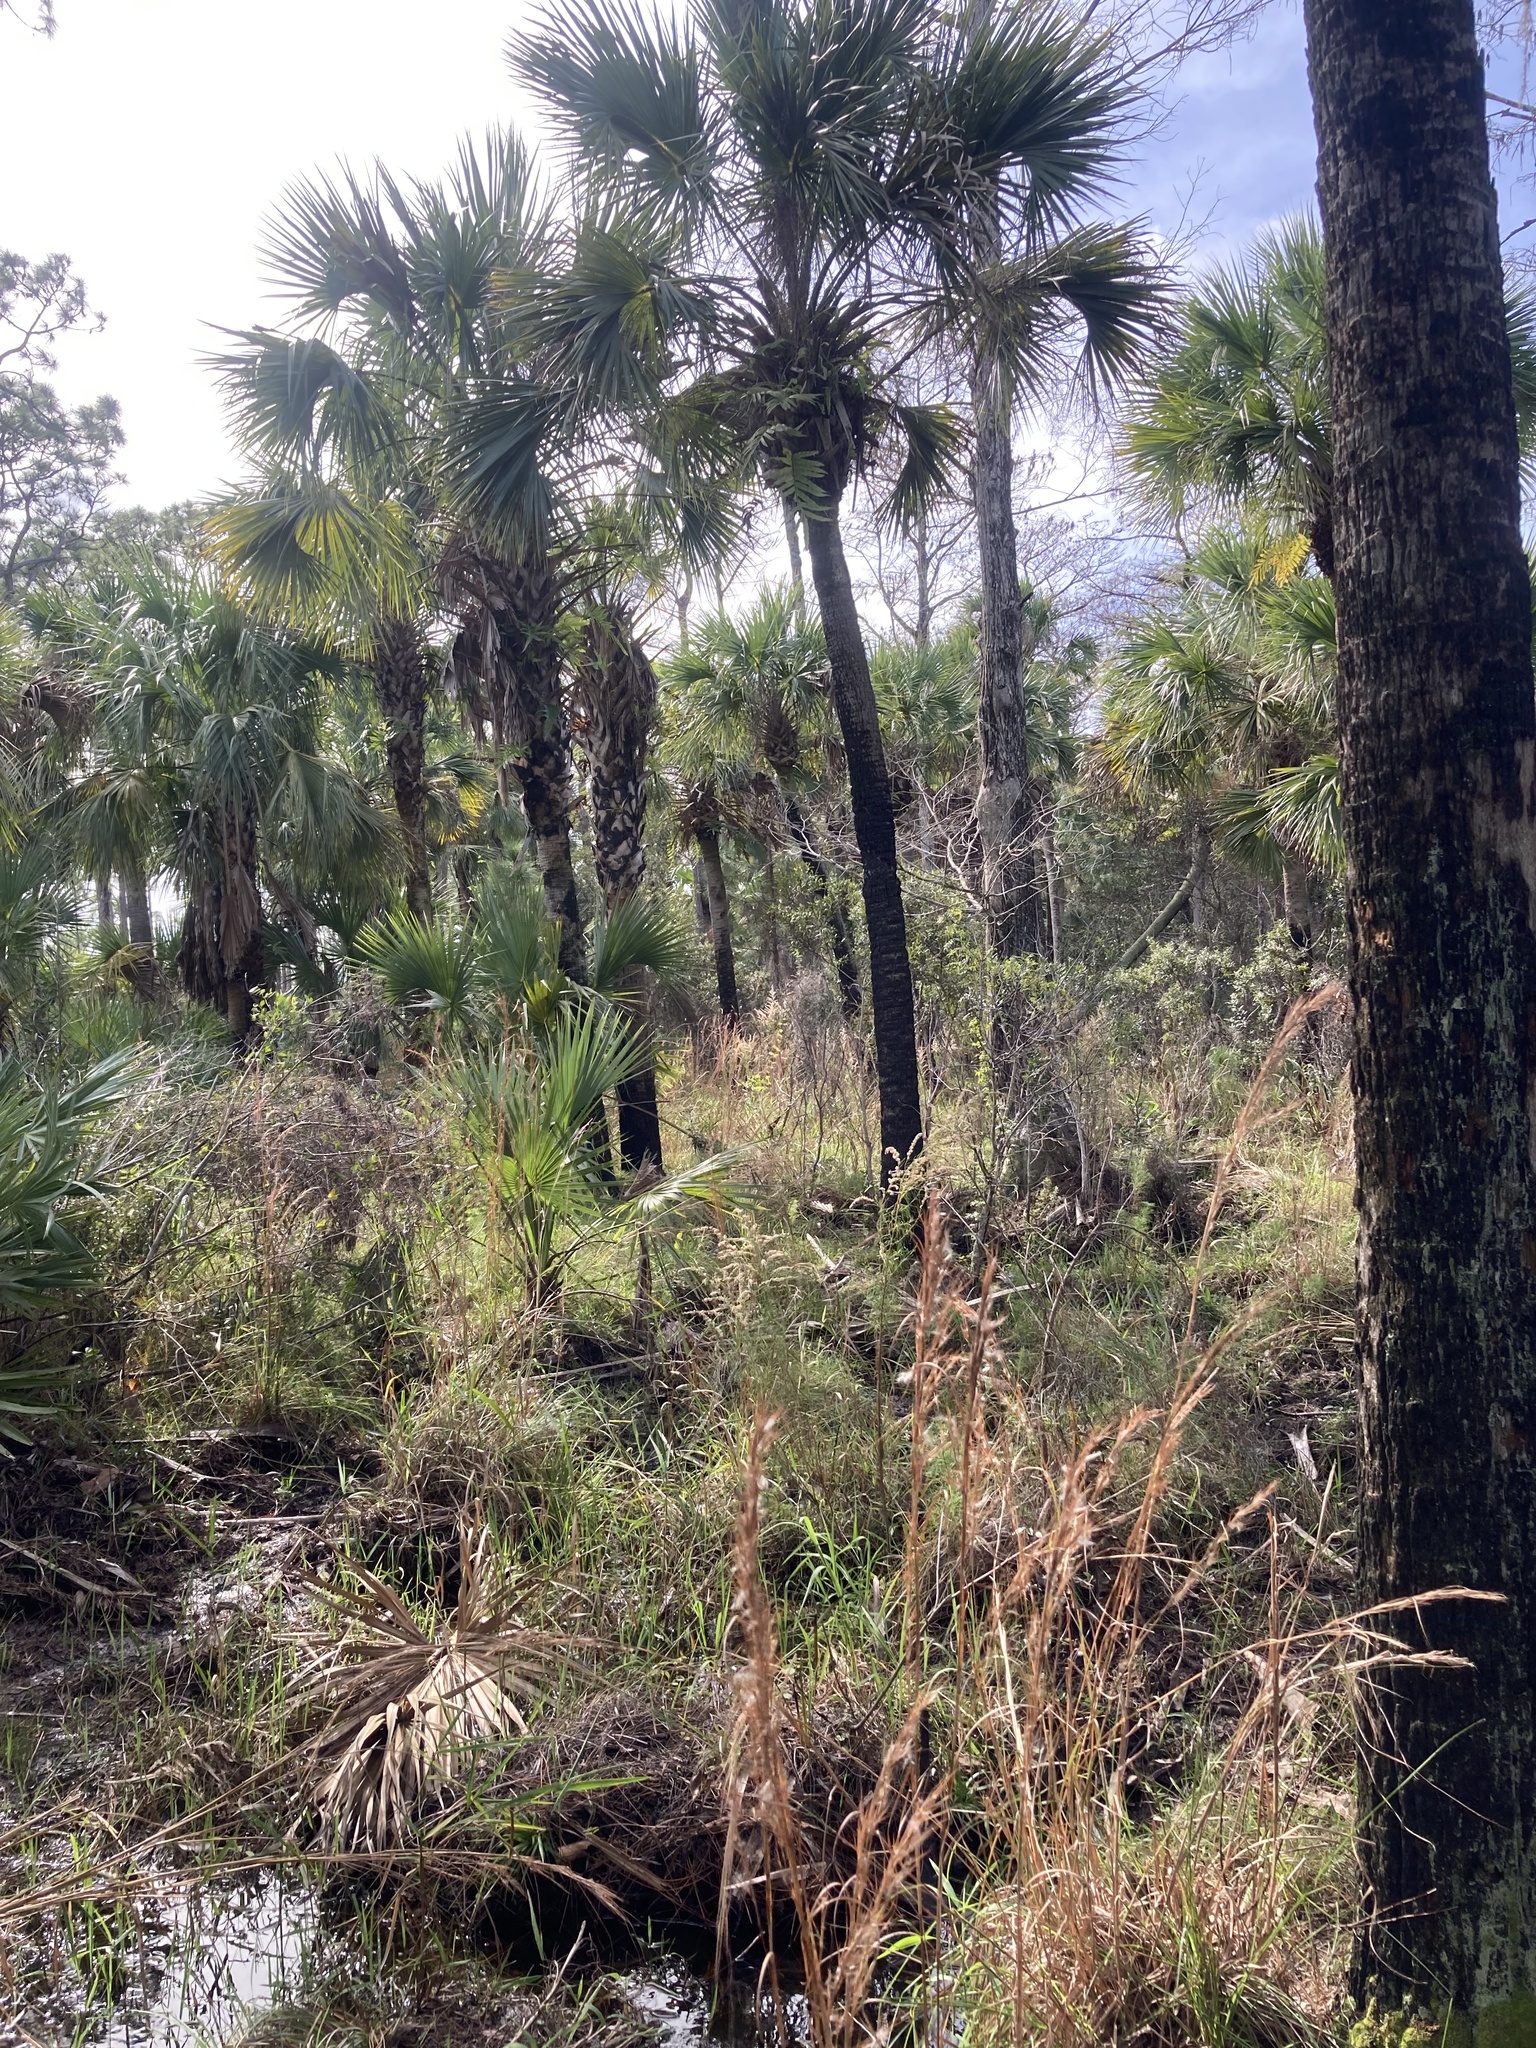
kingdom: Plantae
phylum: Tracheophyta
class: Liliopsida
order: Asparagales
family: Orchidaceae
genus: Habenaria
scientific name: Habenaria floribunda
